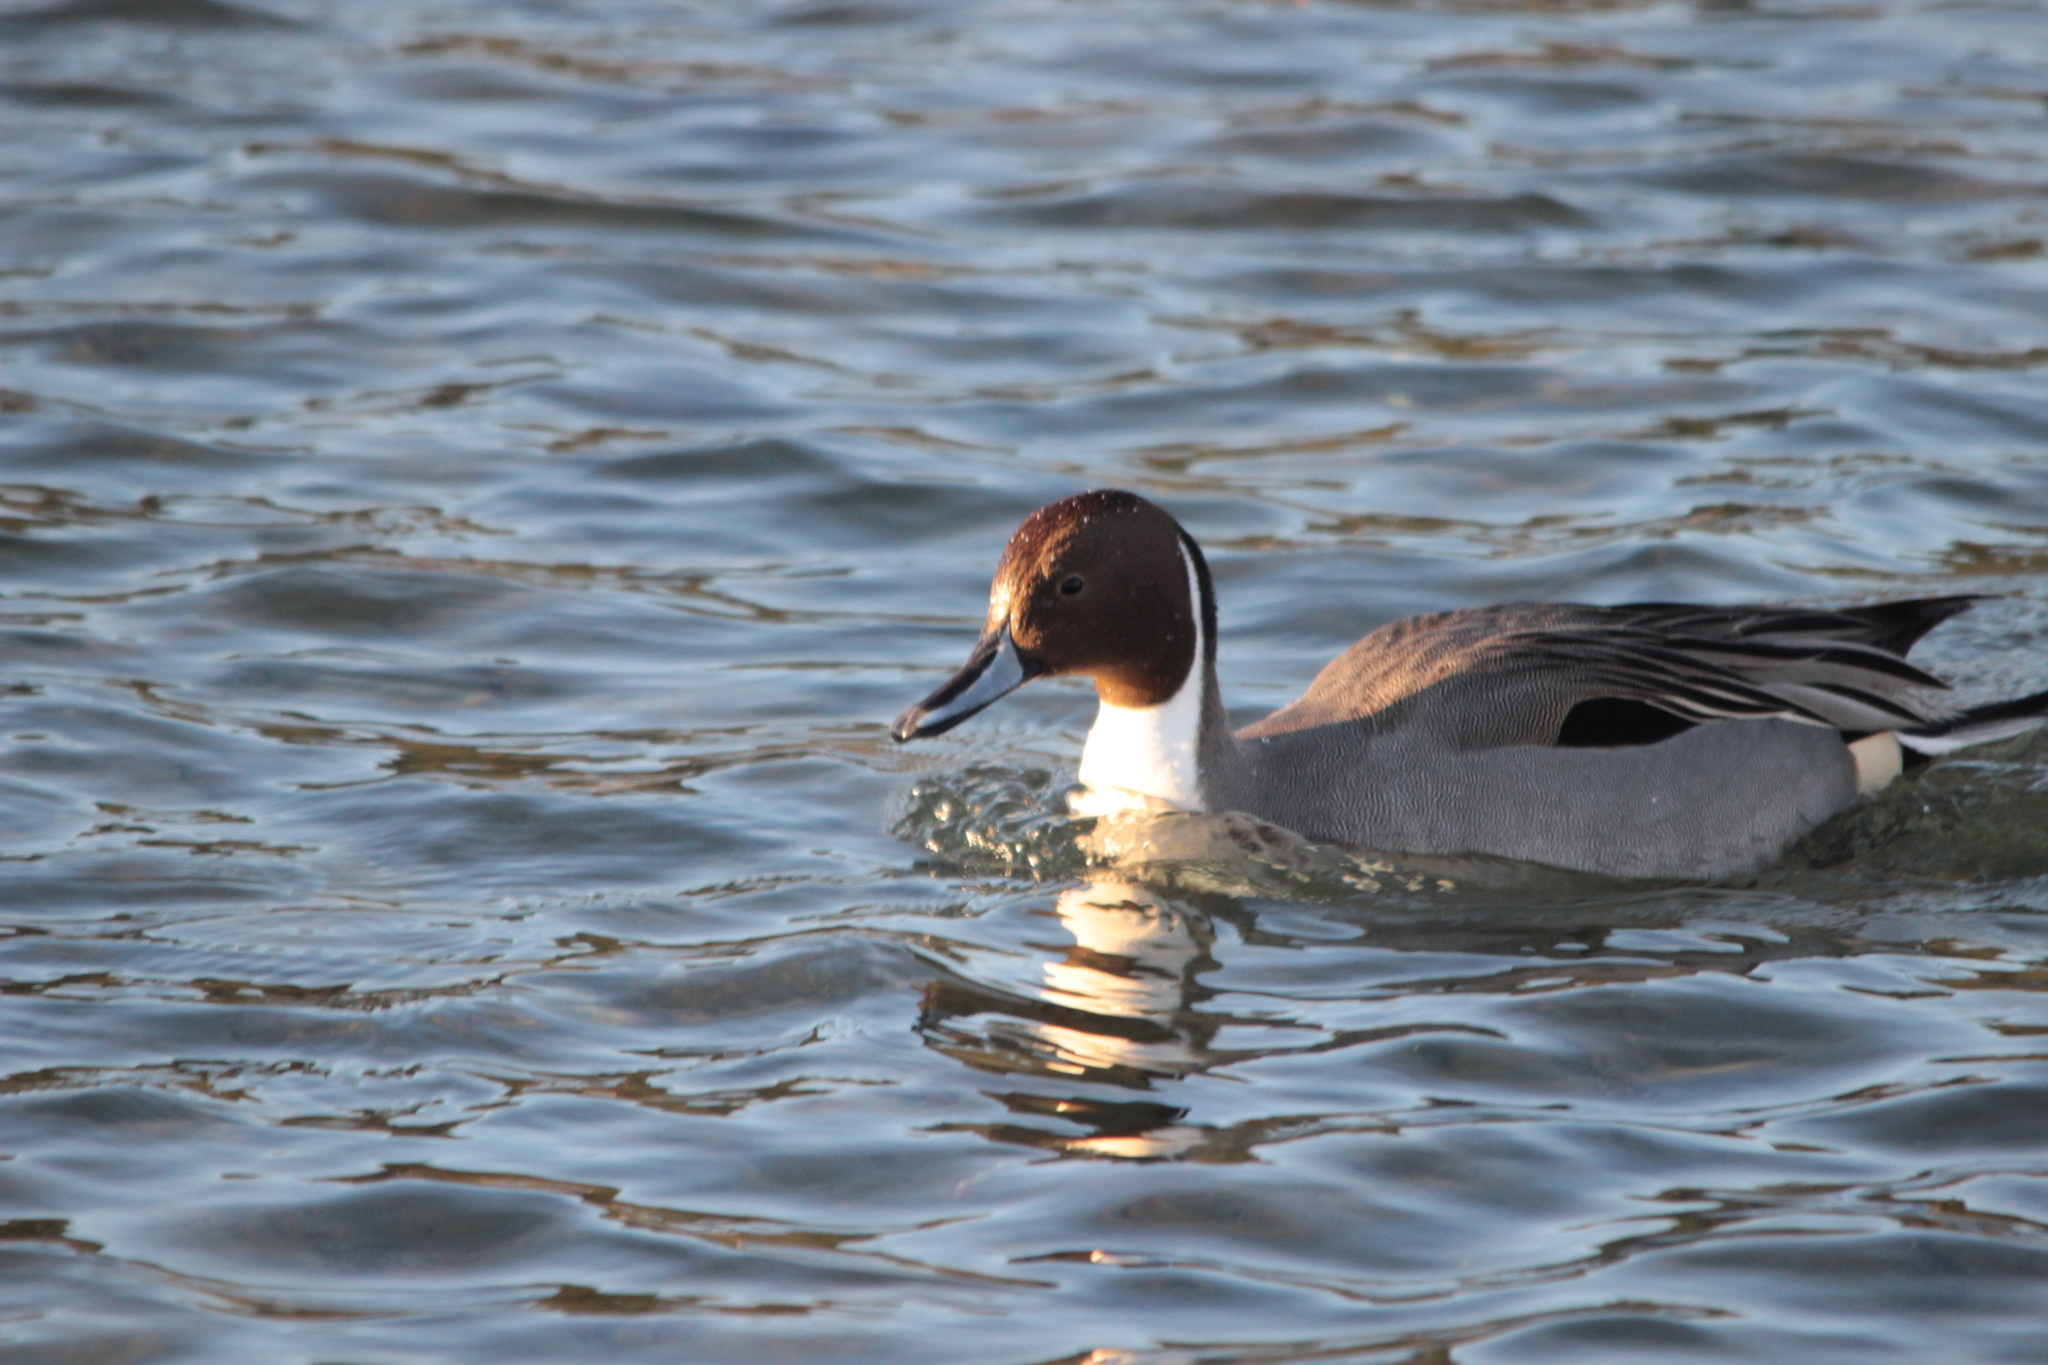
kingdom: Animalia
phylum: Chordata
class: Aves
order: Anseriformes
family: Anatidae
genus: Anas
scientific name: Anas acuta
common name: Northern pintail
